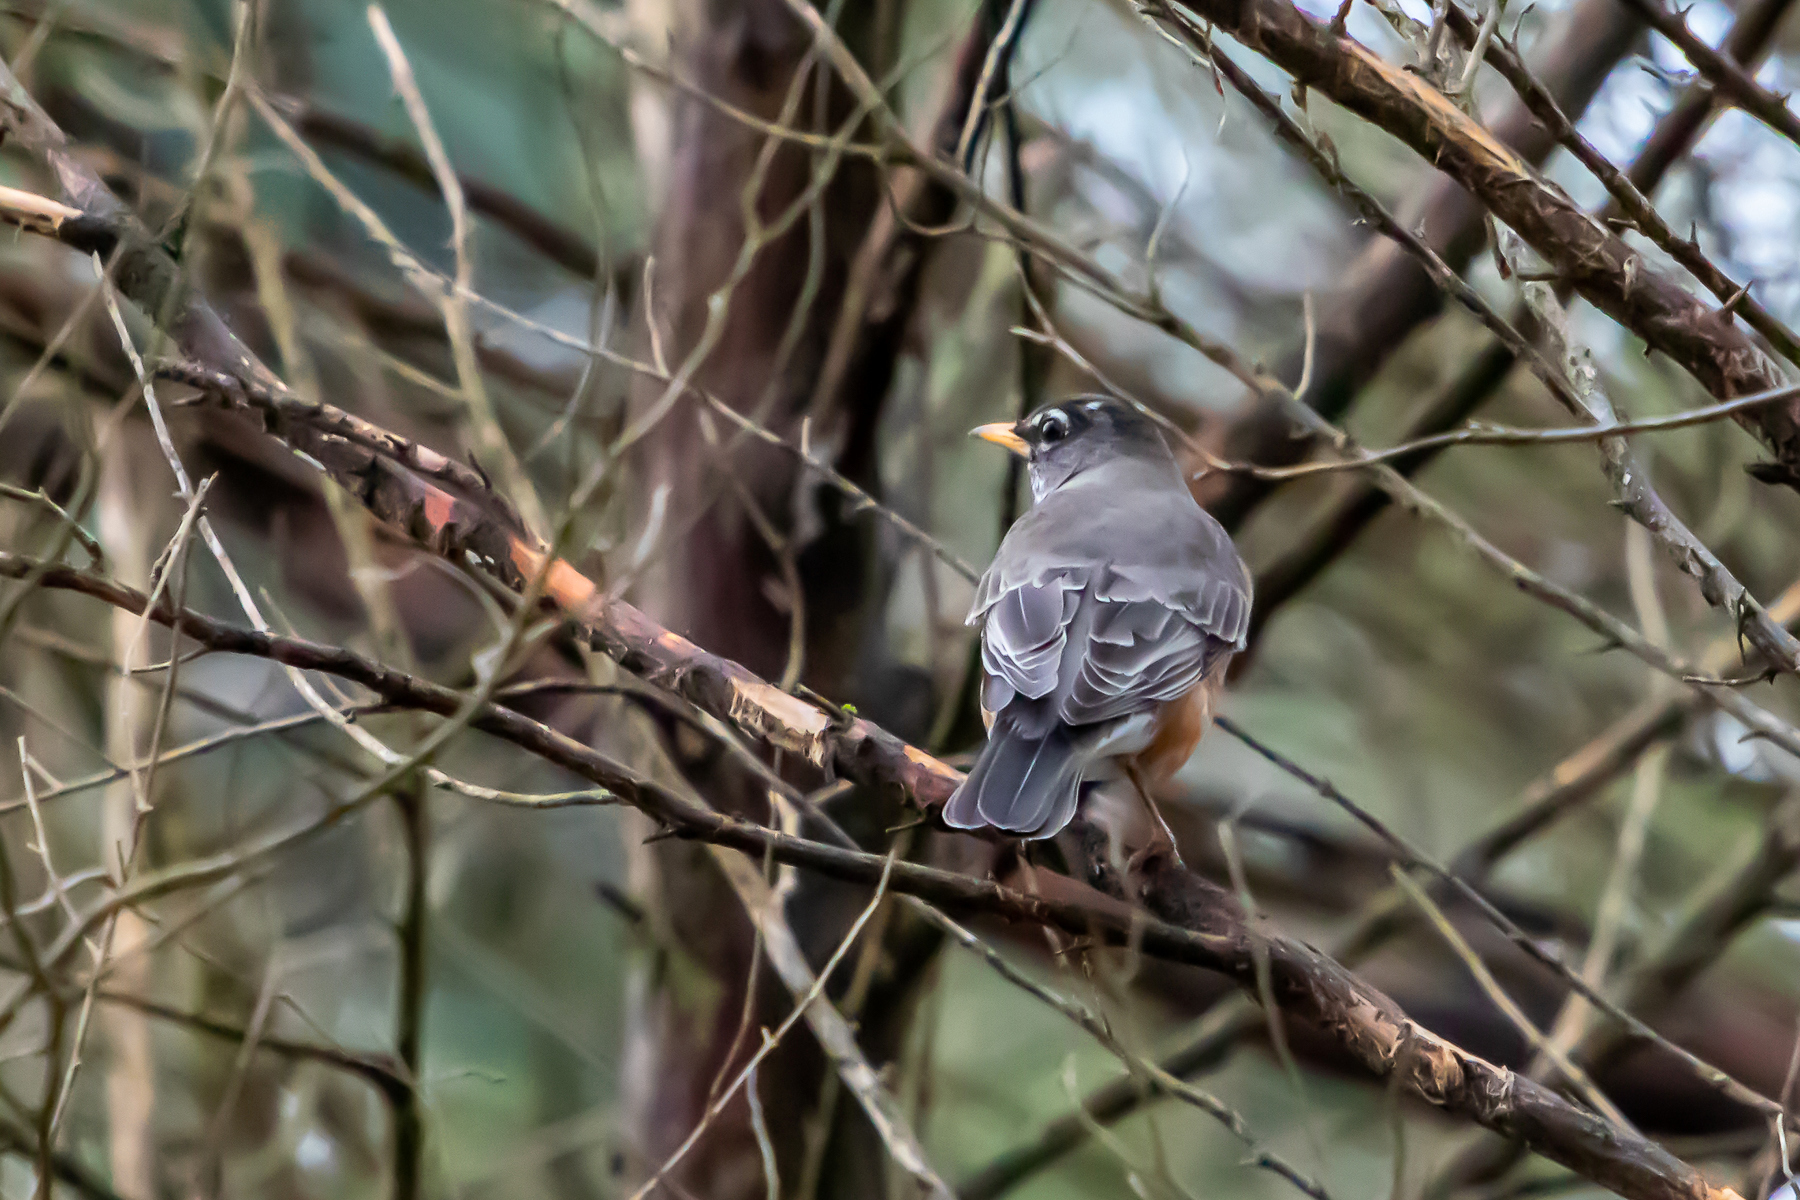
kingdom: Animalia
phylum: Chordata
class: Aves
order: Passeriformes
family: Turdidae
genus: Turdus
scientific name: Turdus migratorius
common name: American robin
